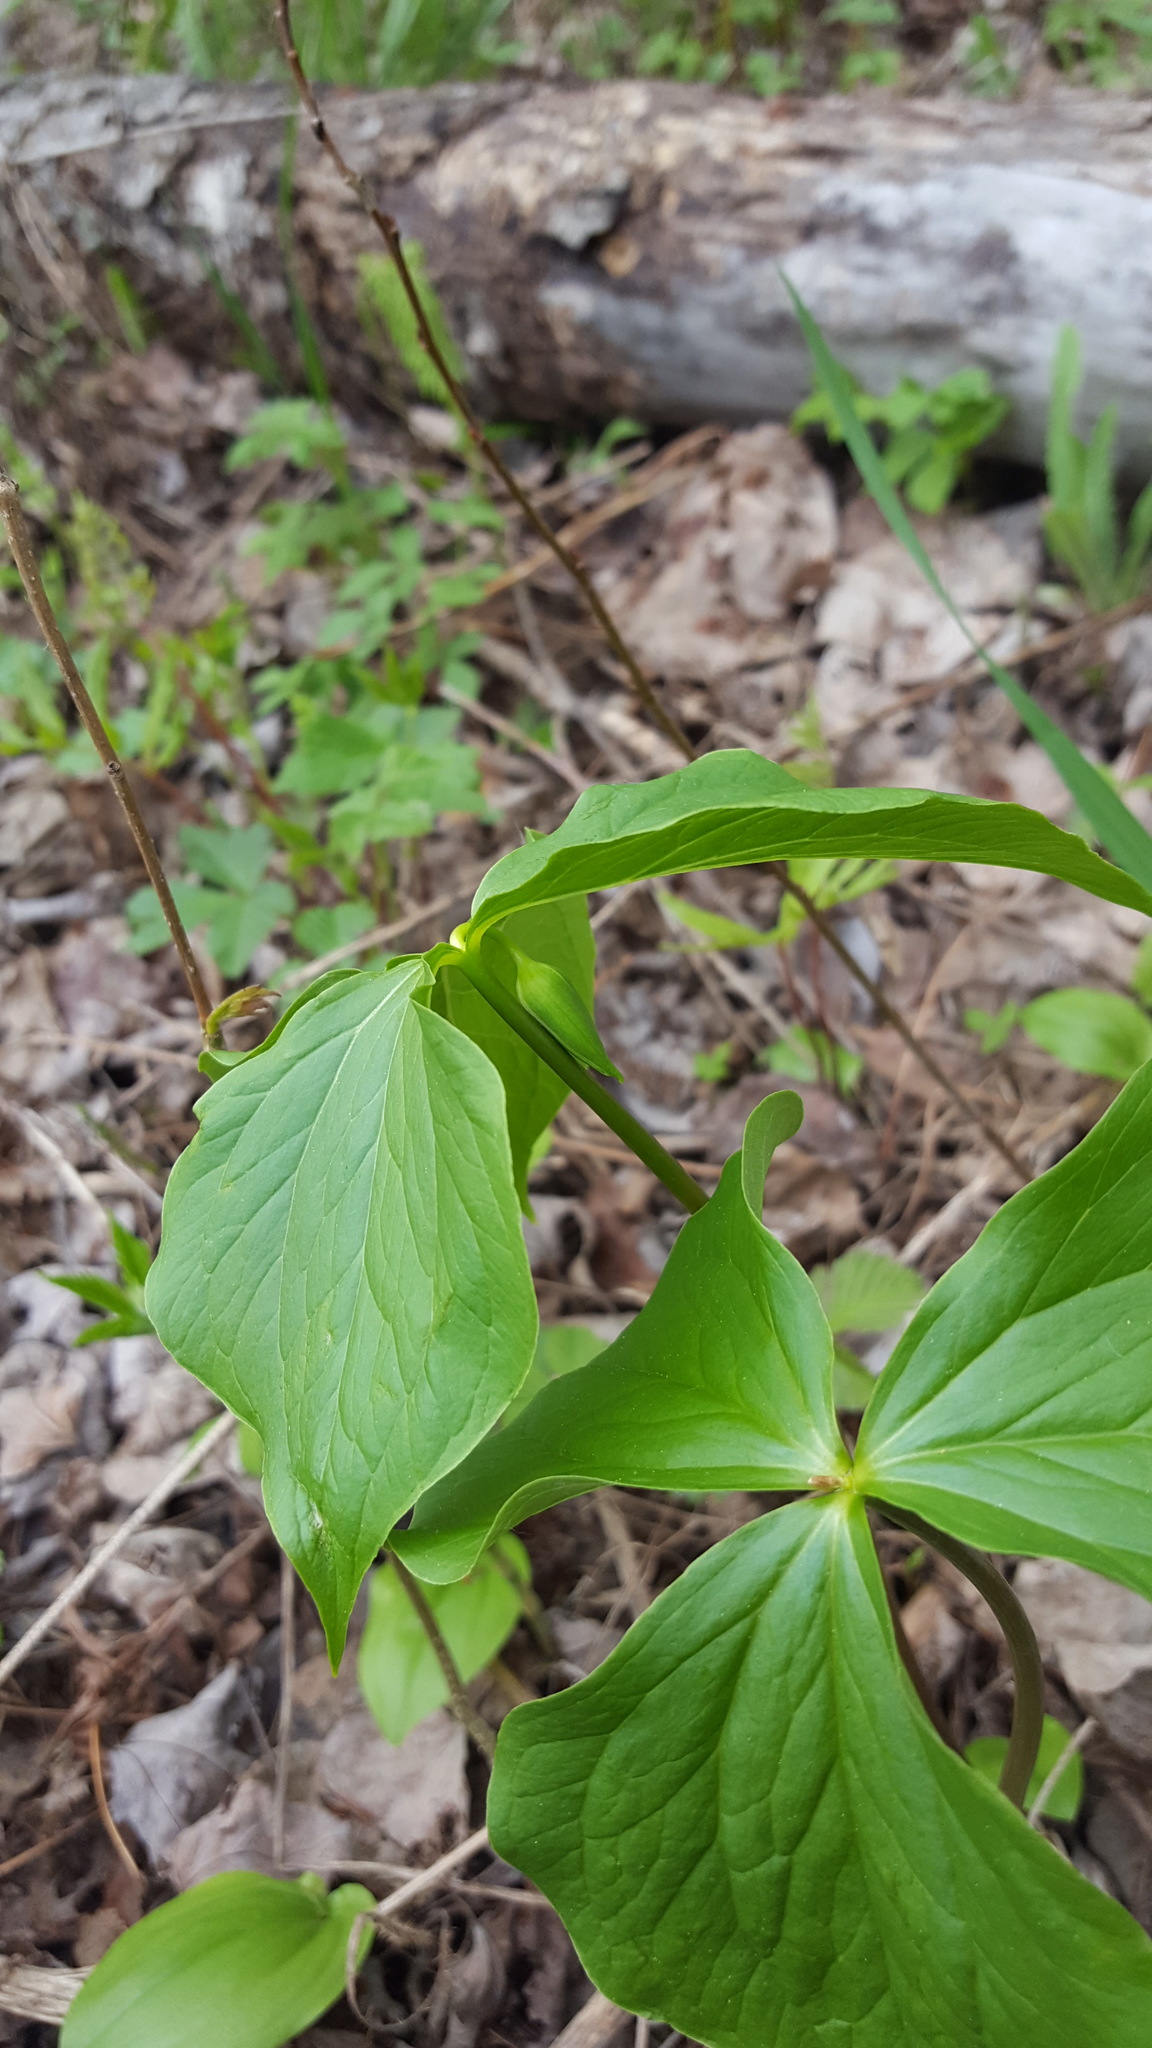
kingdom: Plantae
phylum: Tracheophyta
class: Liliopsida
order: Liliales
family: Melanthiaceae
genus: Trillium
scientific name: Trillium cernuum
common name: Nodding trillium
